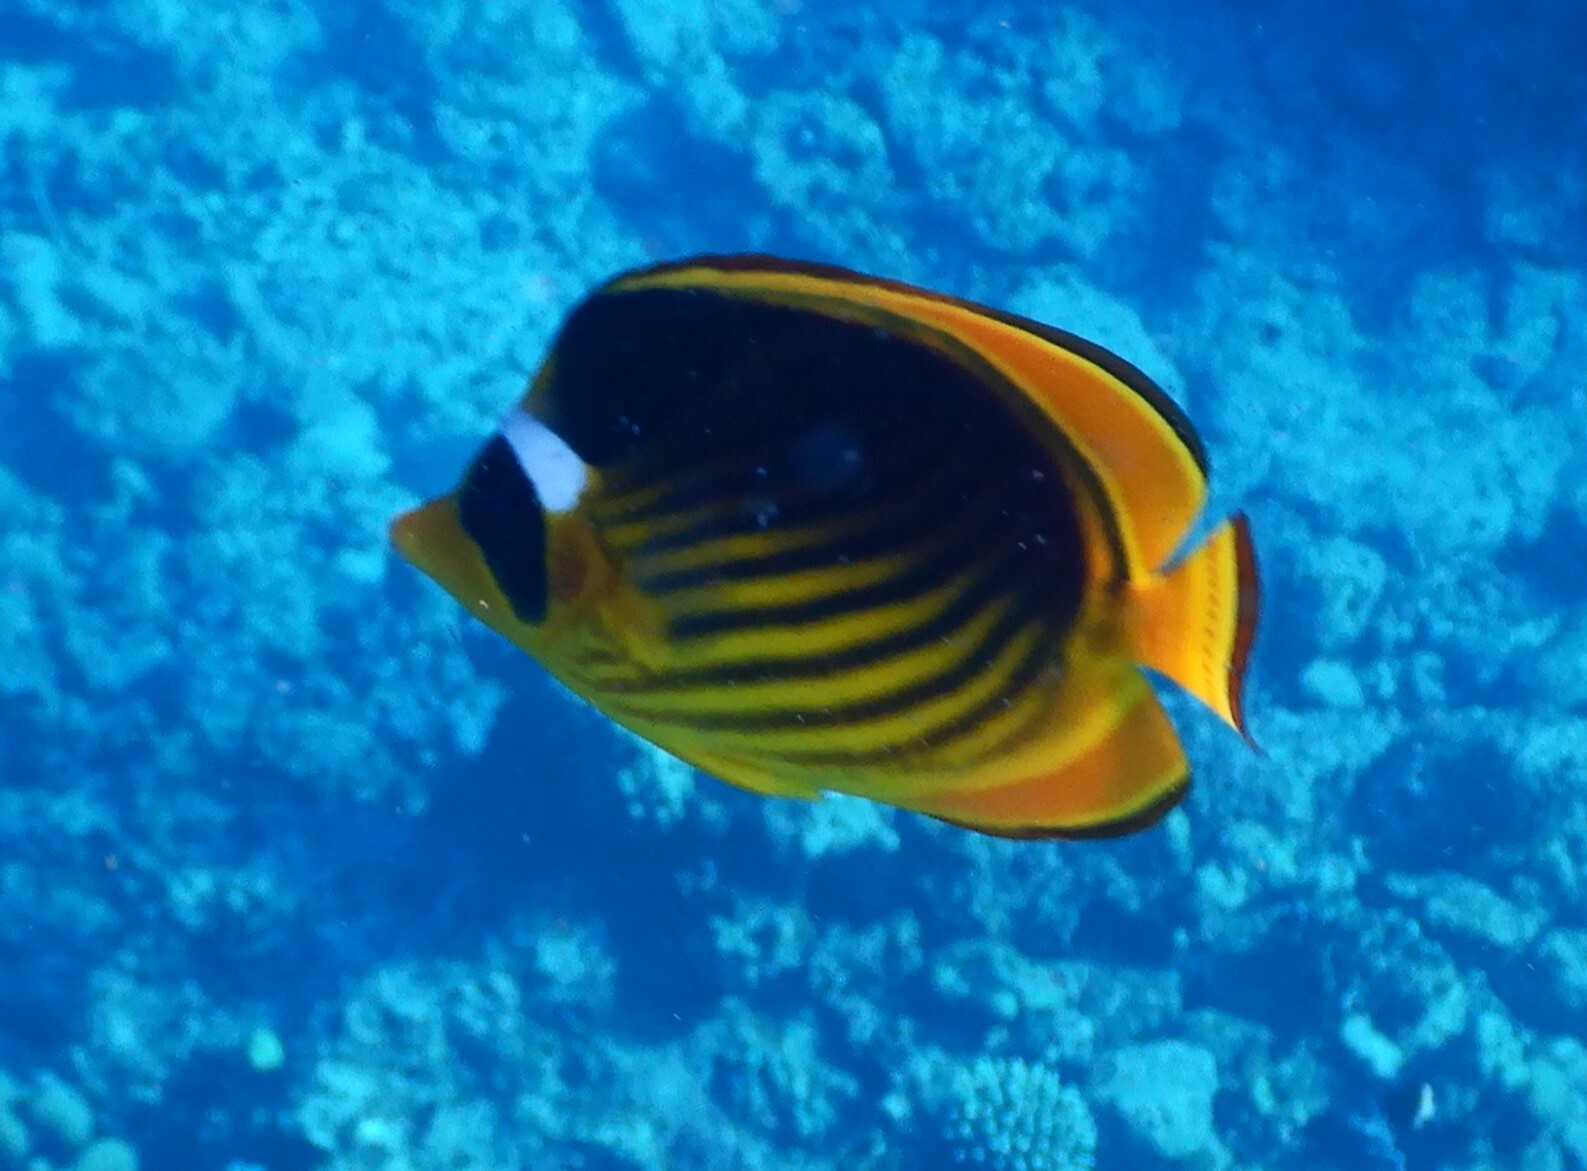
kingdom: Animalia
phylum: Chordata
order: Perciformes
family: Chaetodontidae
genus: Chaetodon
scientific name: Chaetodon fasciatus
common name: Diagonal butterflyfish
